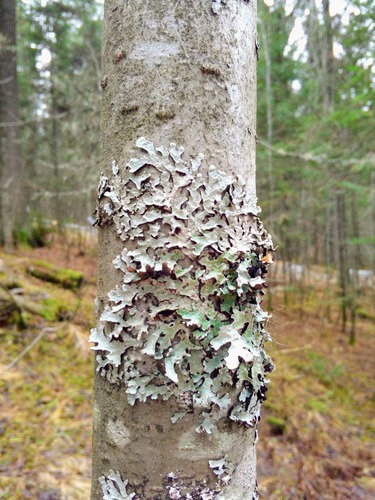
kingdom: Fungi
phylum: Ascomycota
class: Lecanoromycetes
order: Lecanorales
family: Parmeliaceae
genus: Parmelia
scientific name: Parmelia
